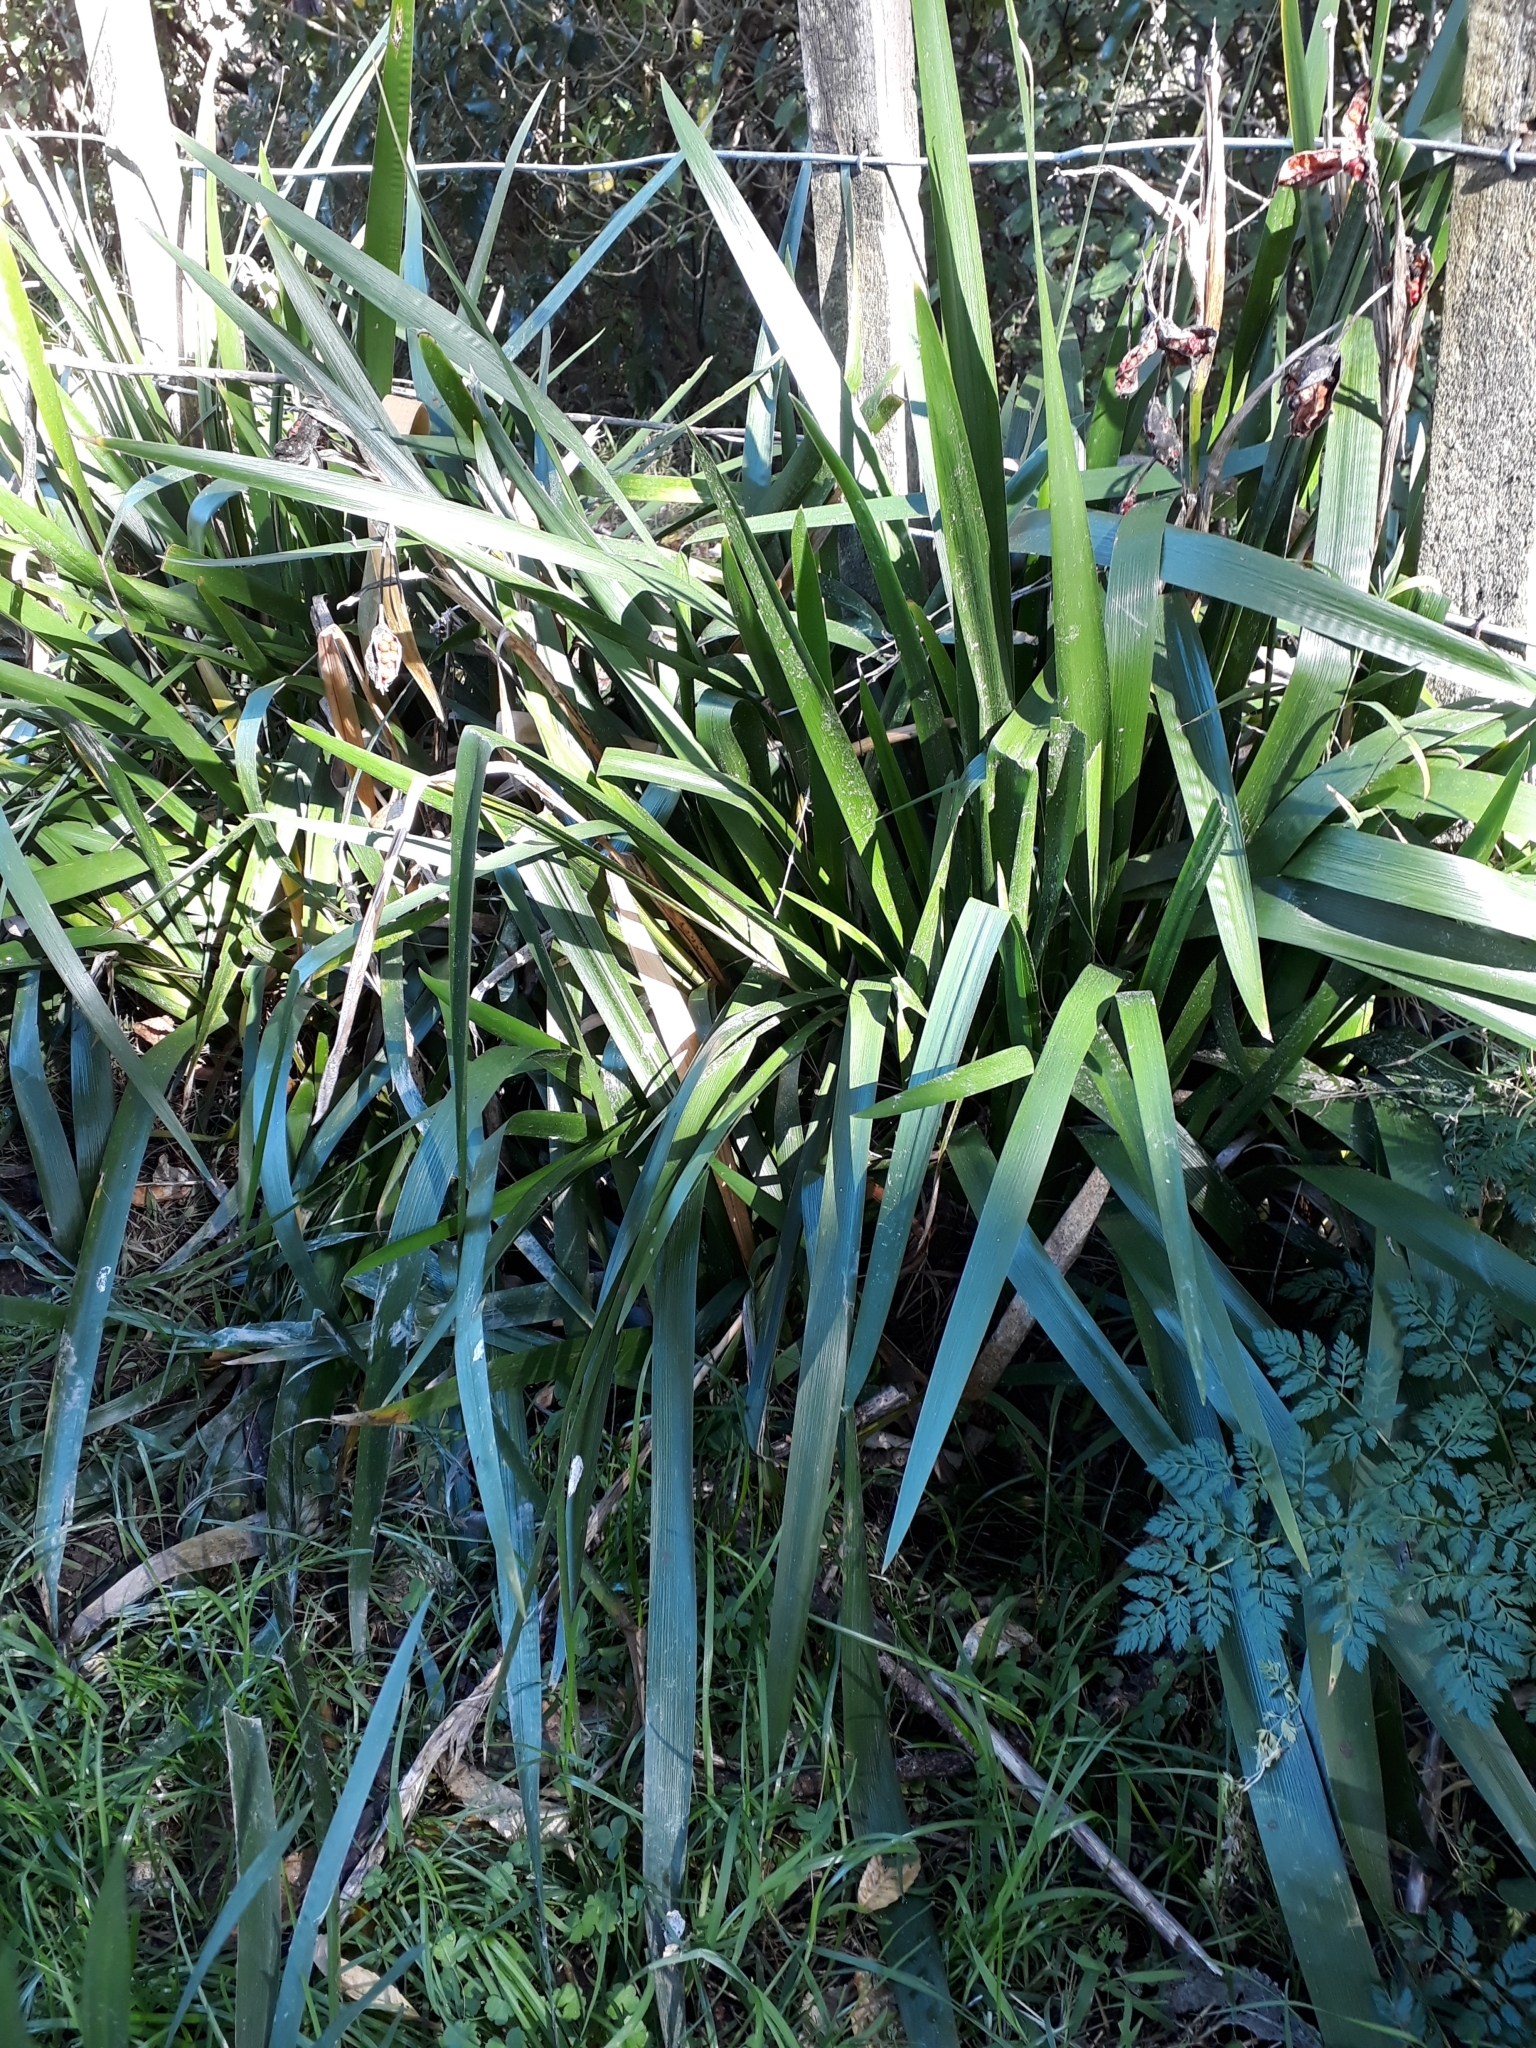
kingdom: Plantae
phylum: Tracheophyta
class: Liliopsida
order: Asparagales
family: Iridaceae
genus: Iris
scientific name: Iris foetidissima
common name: Stinking iris
